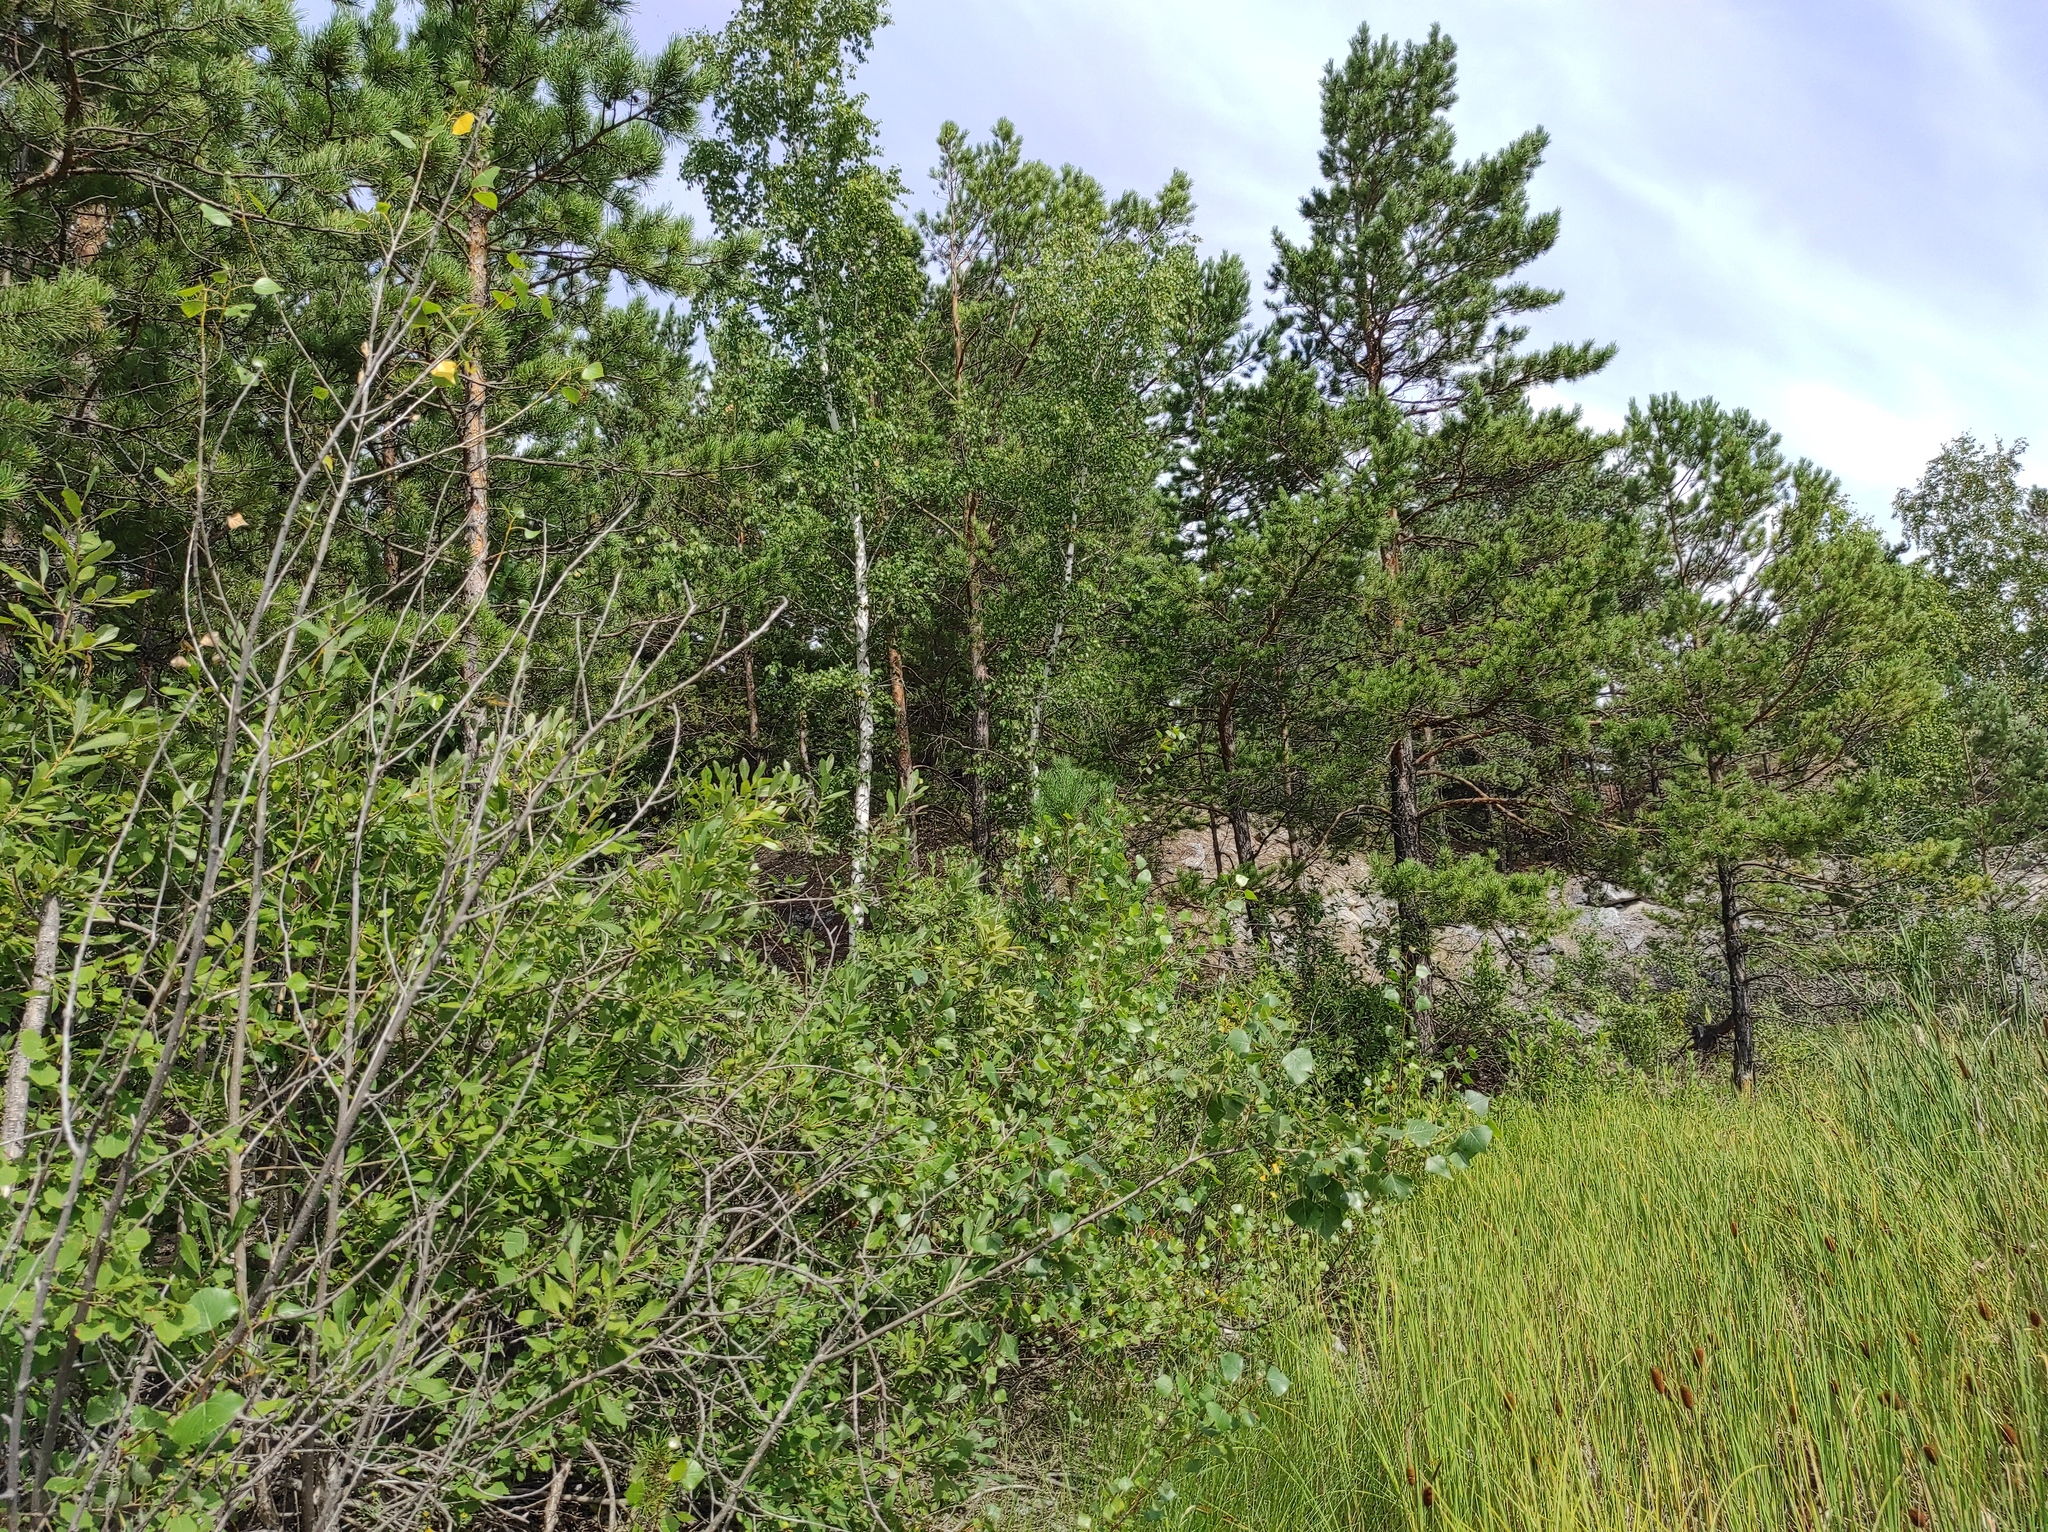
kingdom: Plantae
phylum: Tracheophyta
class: Pinopsida
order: Pinales
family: Pinaceae
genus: Pinus
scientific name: Pinus sylvestris
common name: Scots pine
